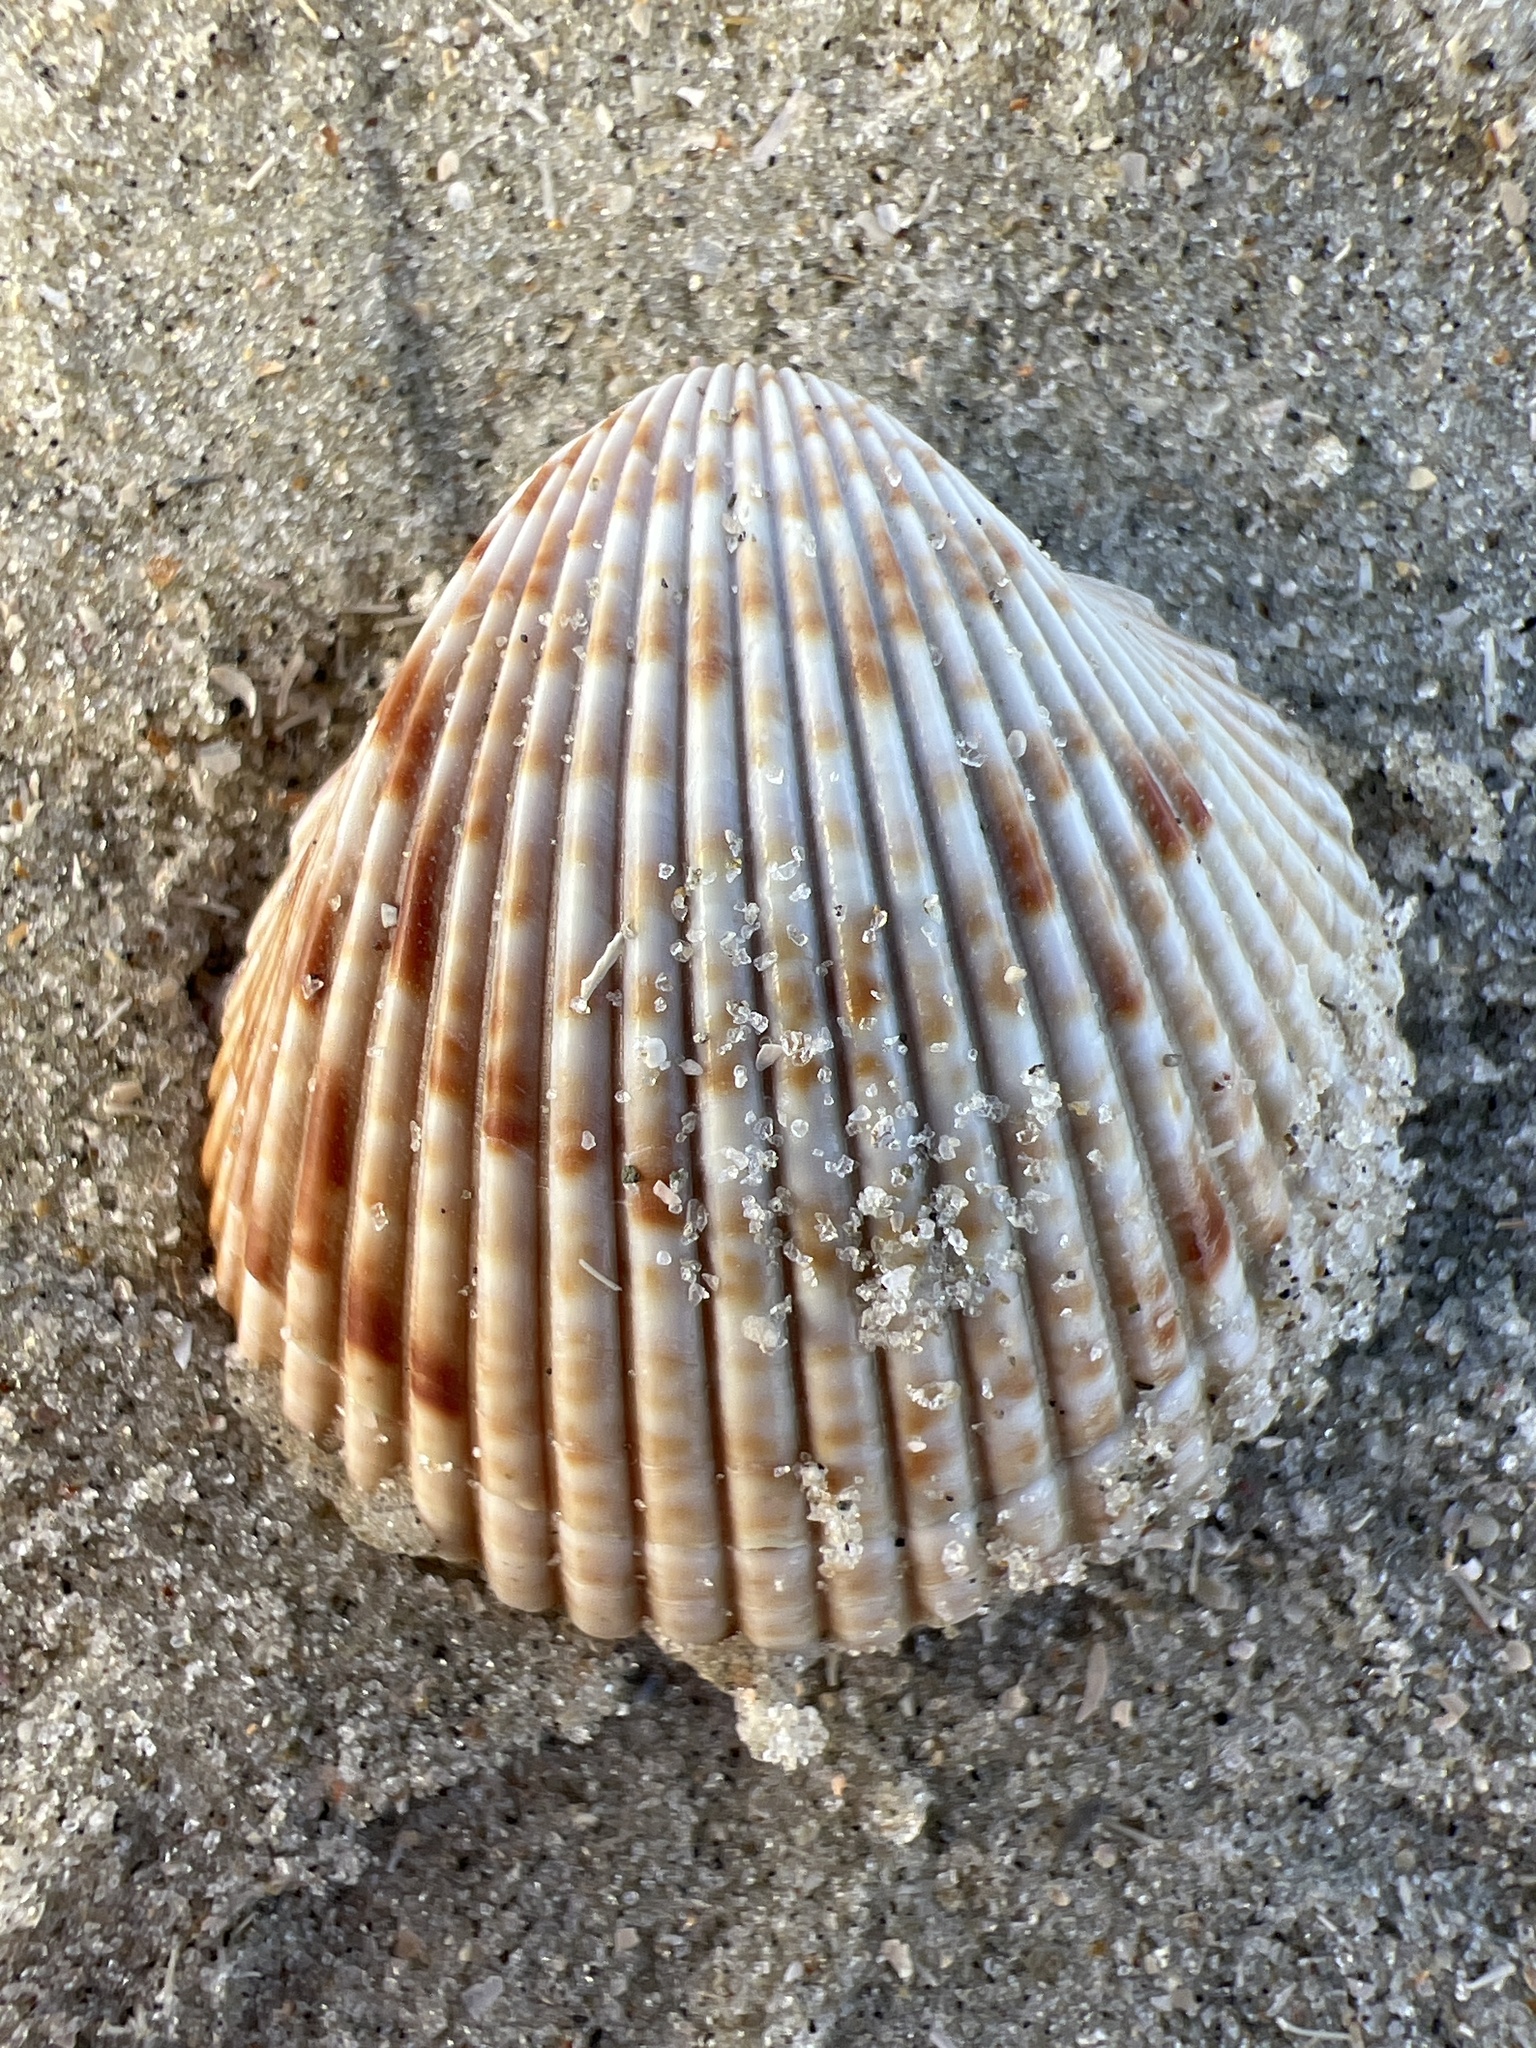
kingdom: Animalia
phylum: Mollusca
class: Bivalvia
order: Cardiida
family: Cardiidae
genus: Dinocardium
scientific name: Dinocardium robustum
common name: Atlantic giant cockle
